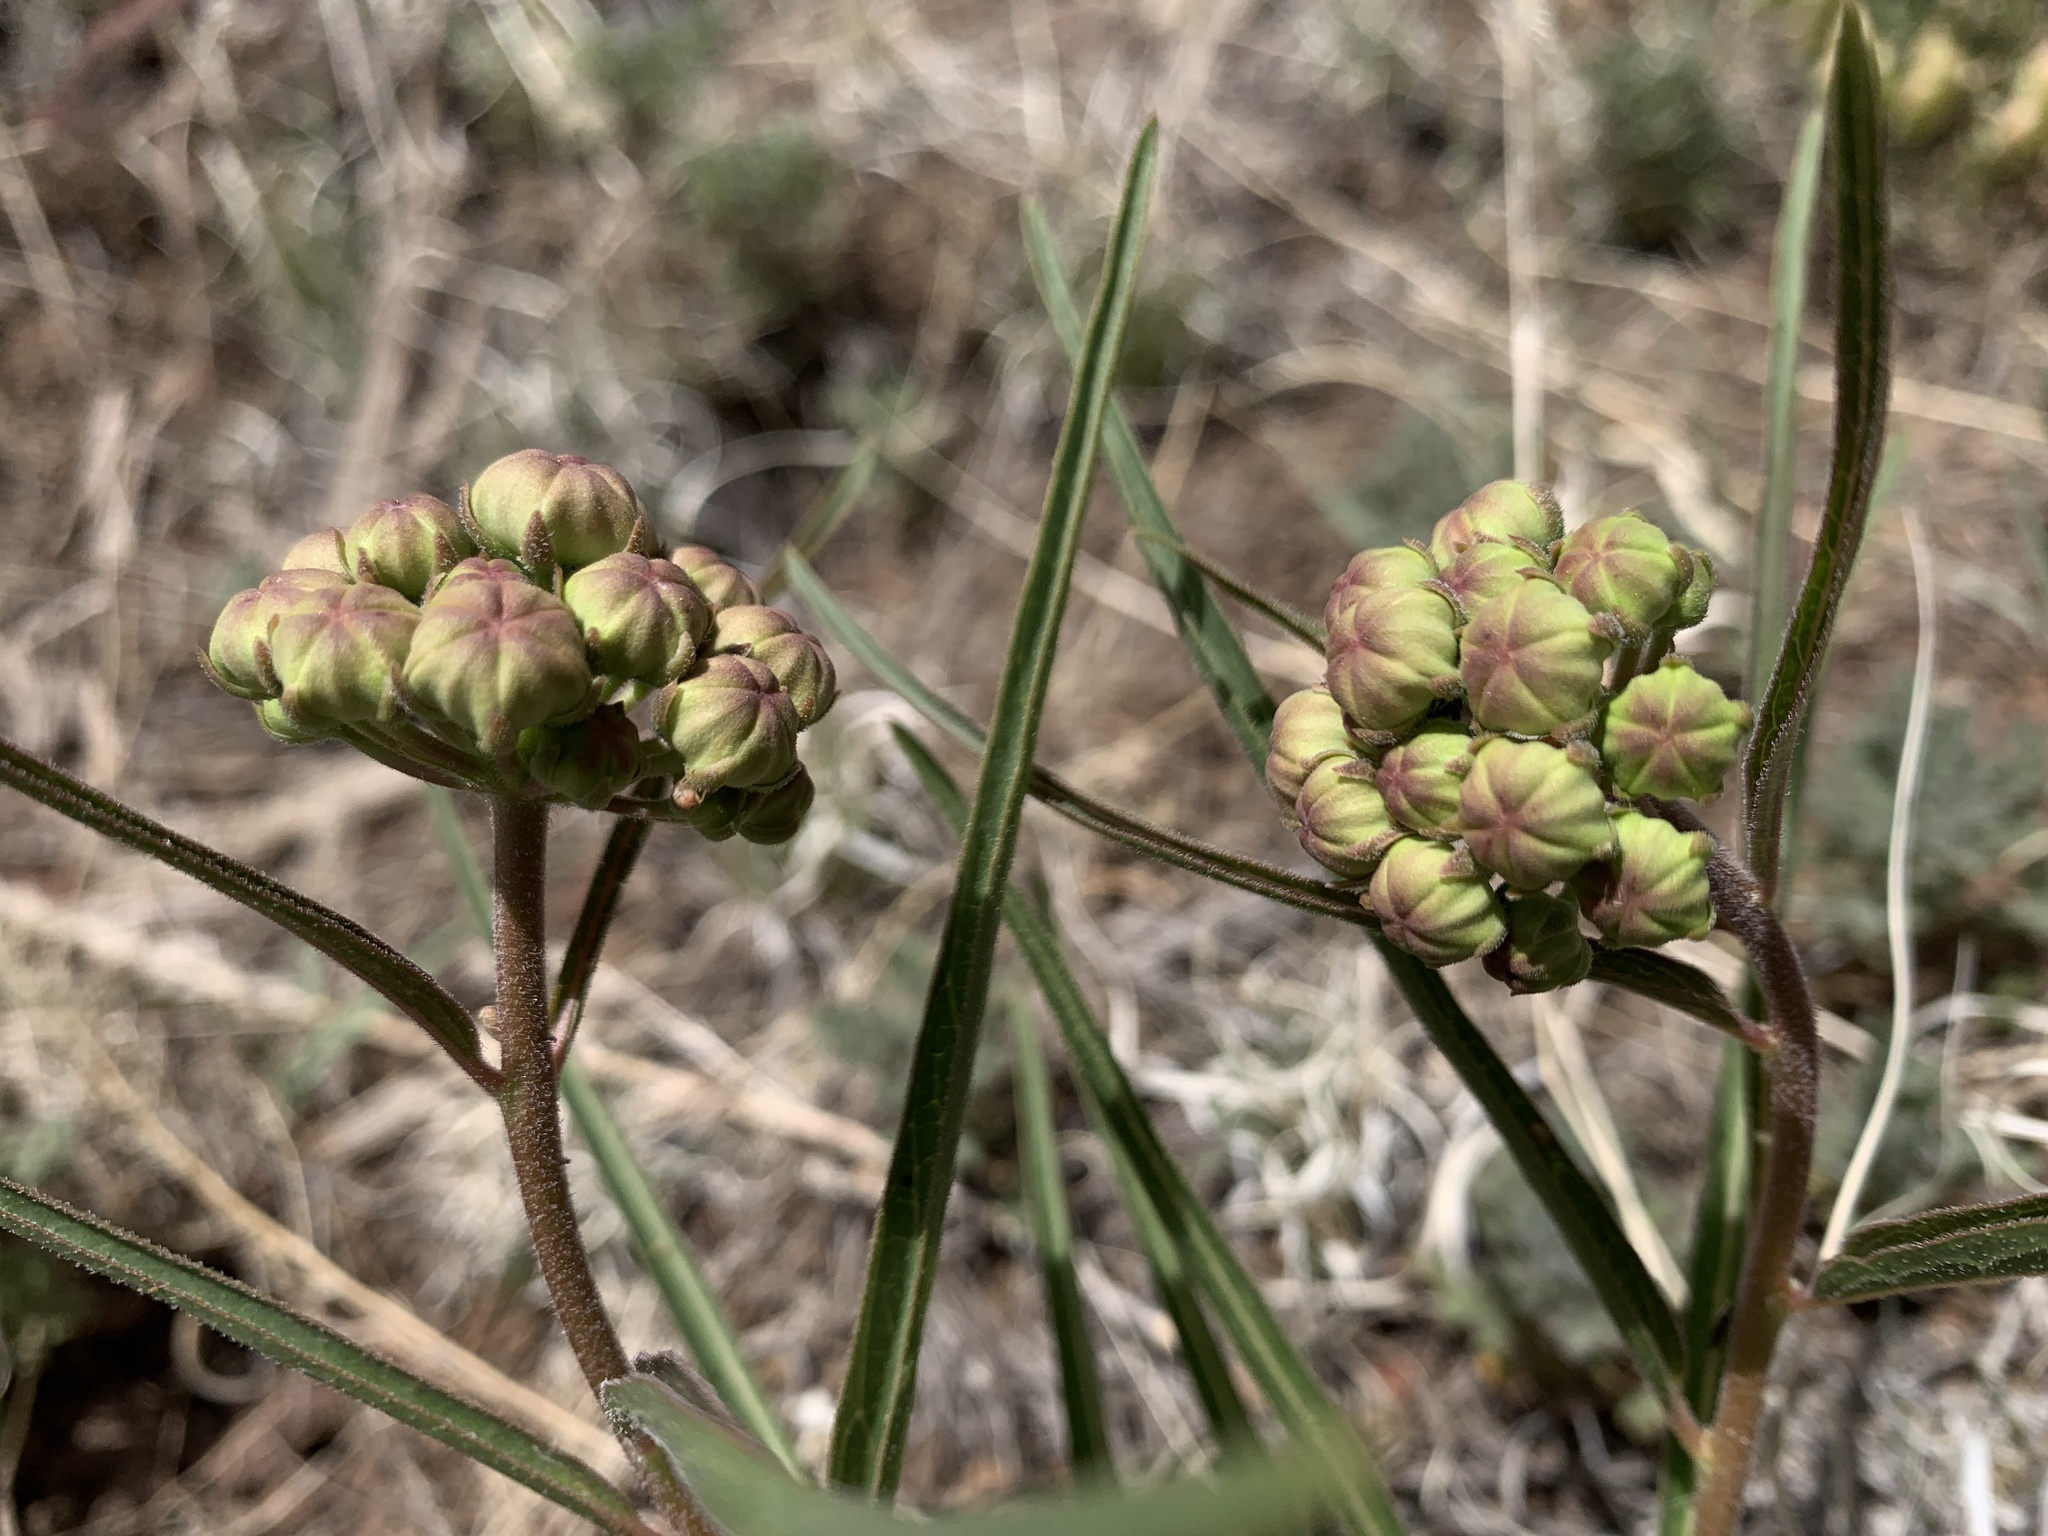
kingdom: Plantae
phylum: Tracheophyta
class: Magnoliopsida
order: Gentianales
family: Apocynaceae
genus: Asclepias
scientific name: Asclepias asperula
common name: Antelope horns
